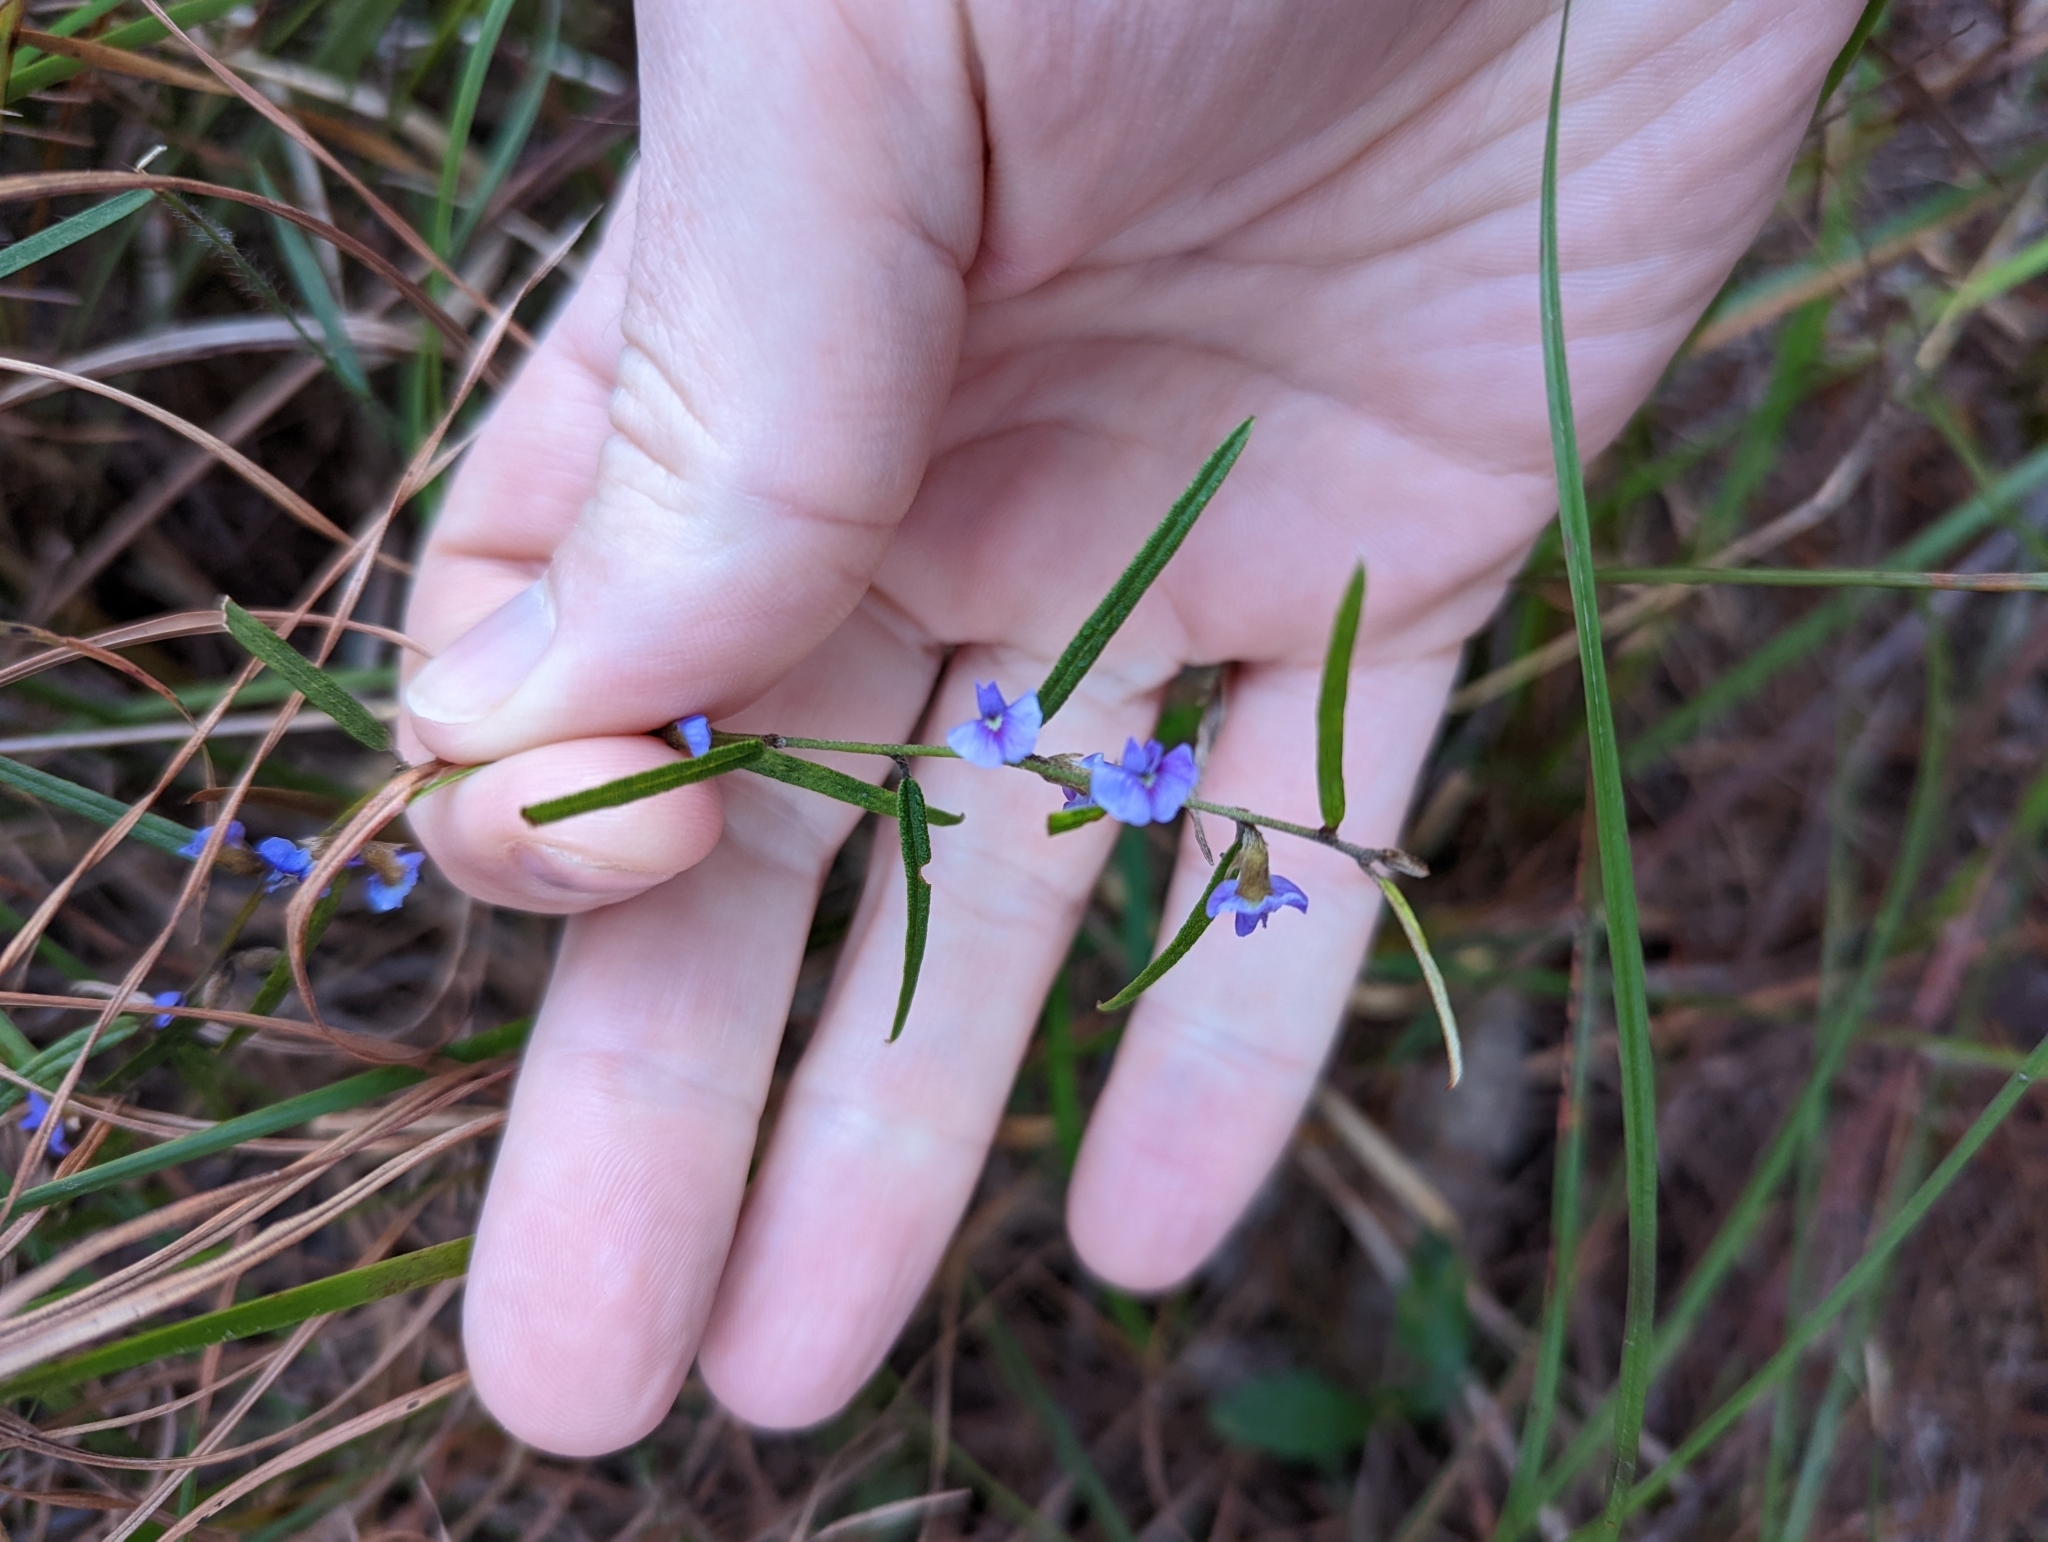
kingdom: Plantae
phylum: Tracheophyta
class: Magnoliopsida
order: Fabales
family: Fabaceae
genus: Hovea
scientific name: Hovea heterophylla
